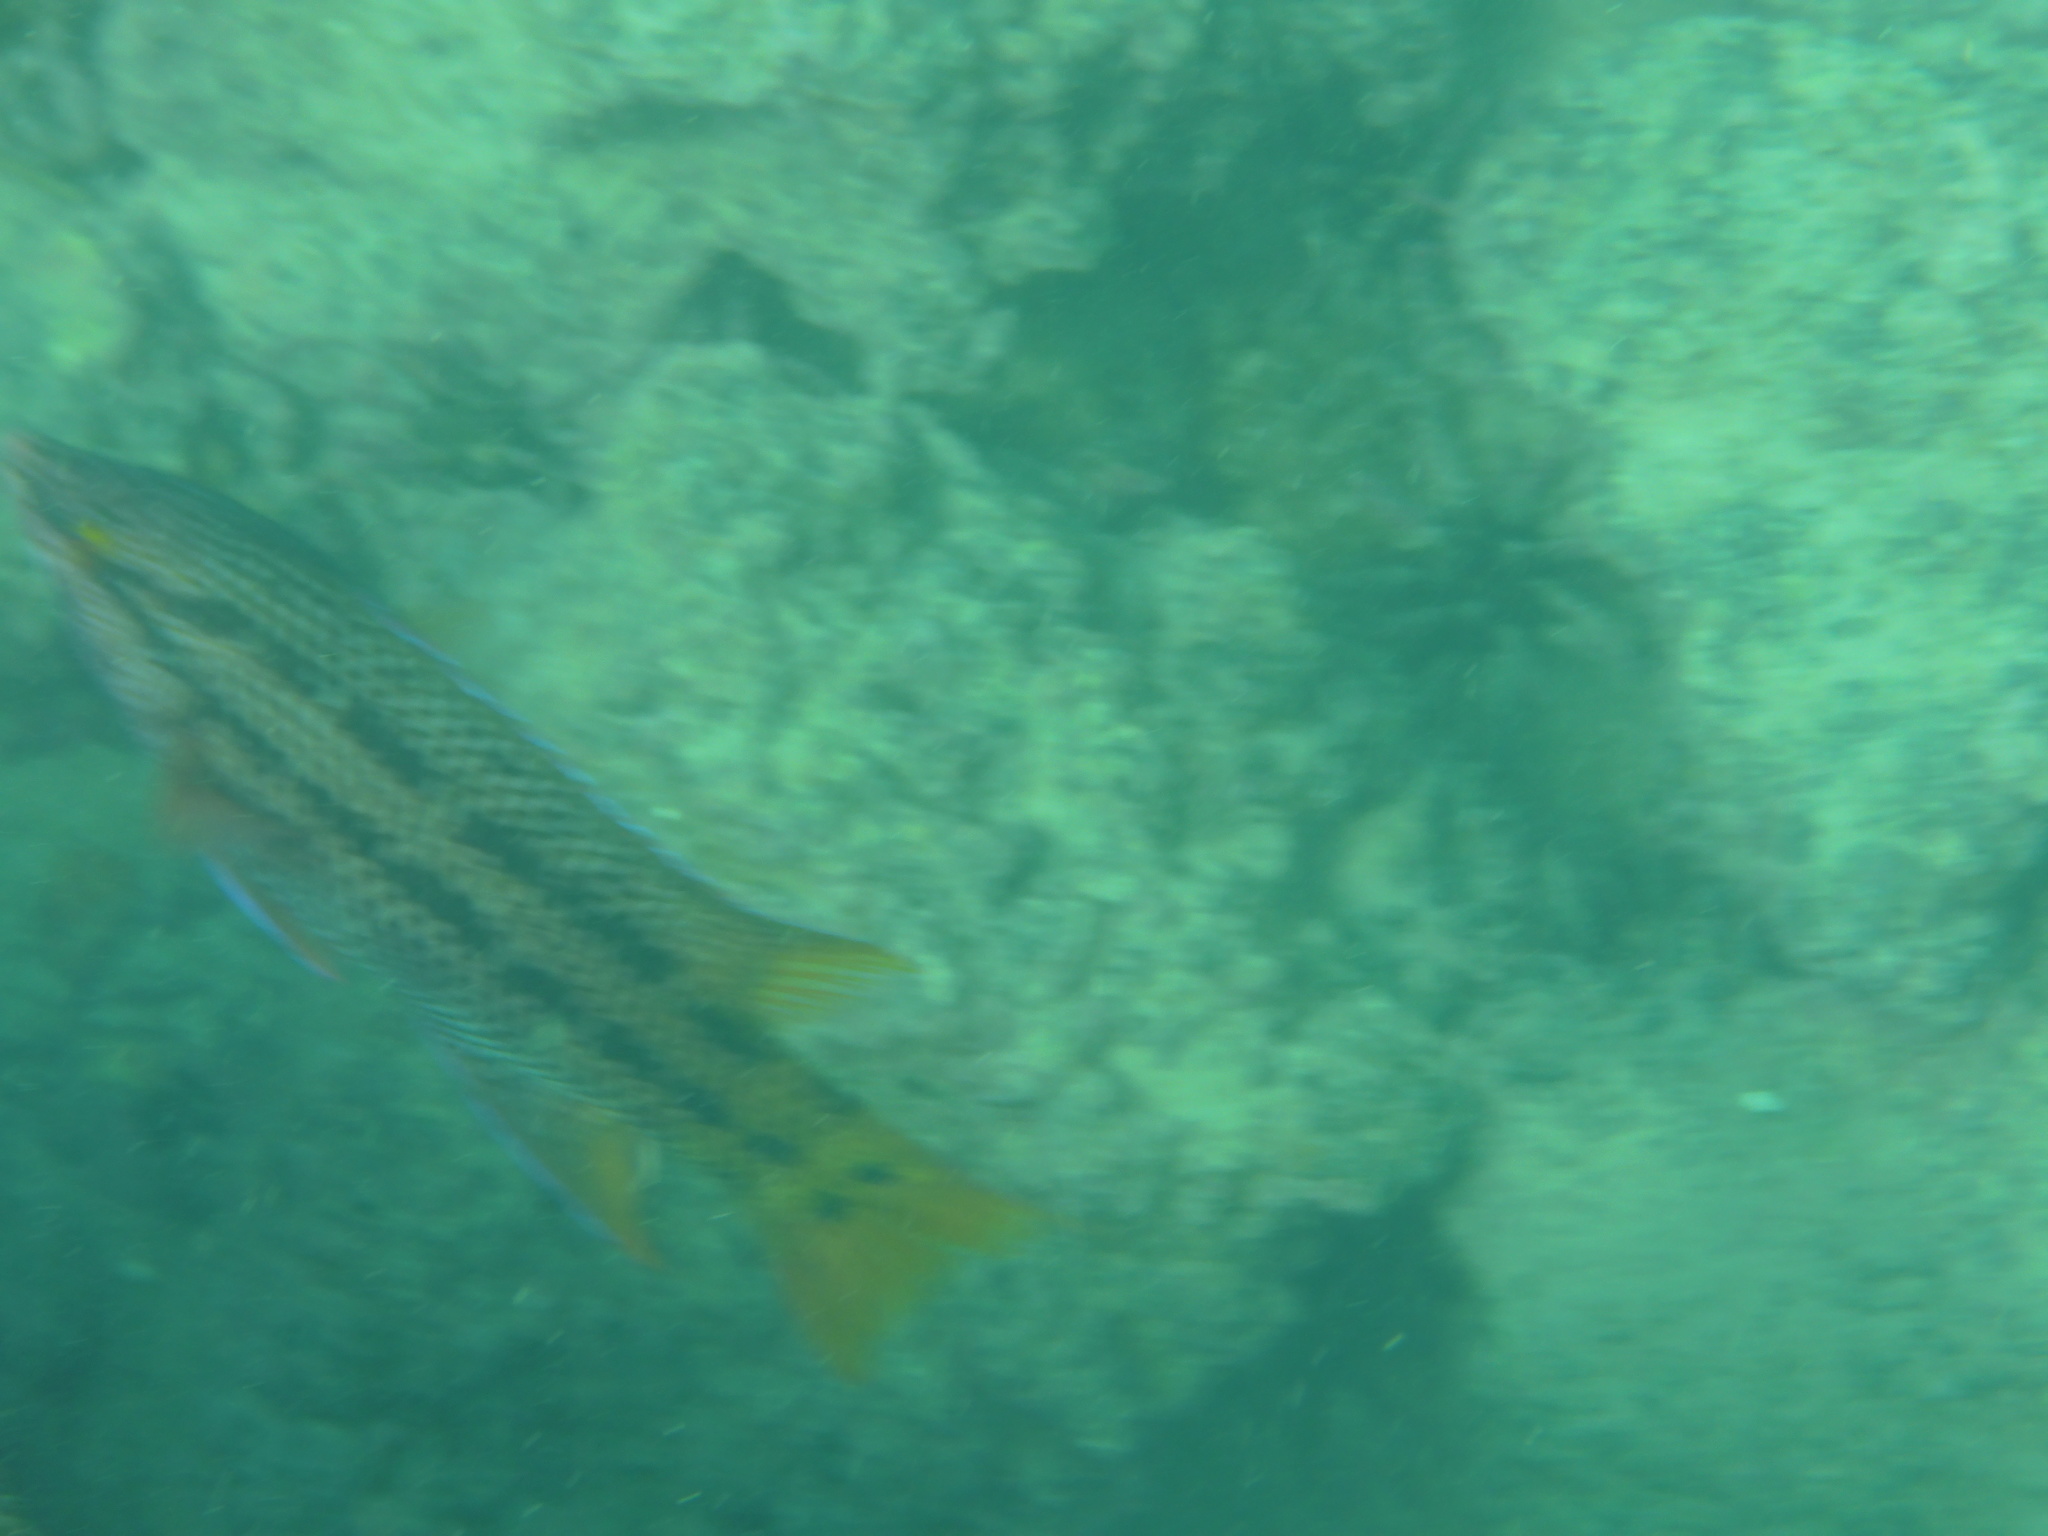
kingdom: Animalia
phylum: Chordata
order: Perciformes
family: Labridae
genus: Bodianus
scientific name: Bodianus diplotaenia
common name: Mexican hogfish
